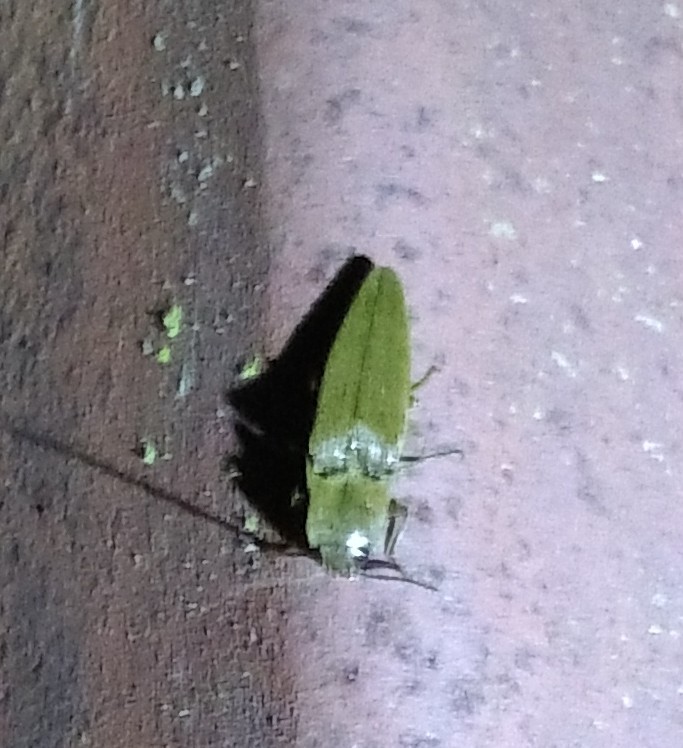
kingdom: Animalia
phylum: Arthropoda
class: Insecta
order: Coleoptera
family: Elateridae
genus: Orthostethus
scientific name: Orthostethus infuscatus
